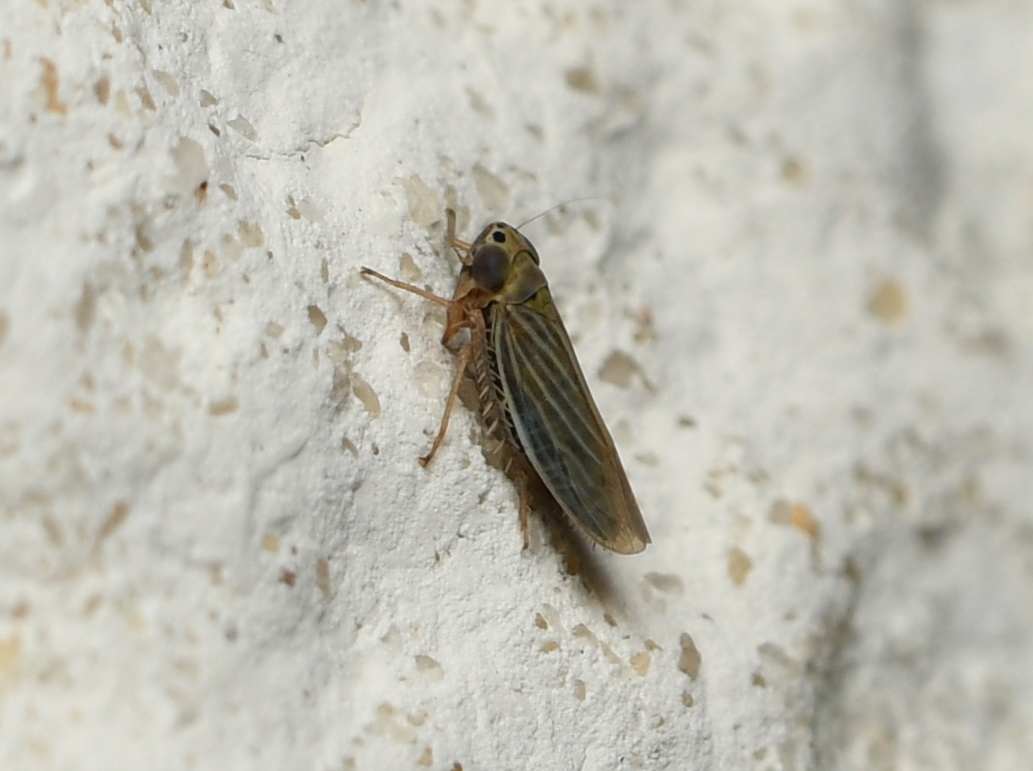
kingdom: Animalia
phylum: Arthropoda
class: Insecta
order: Hemiptera
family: Cicadellidae
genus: Graminella
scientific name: Graminella cognita
